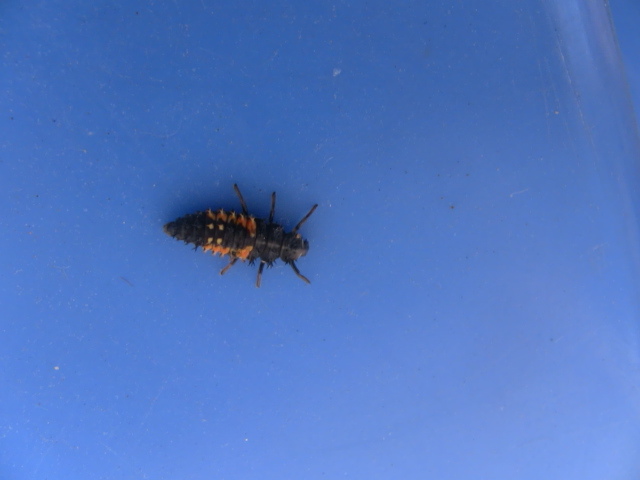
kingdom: Animalia
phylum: Arthropoda
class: Insecta
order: Coleoptera
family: Coccinellidae
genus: Harmonia
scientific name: Harmonia axyridis
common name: Harlequin ladybird
